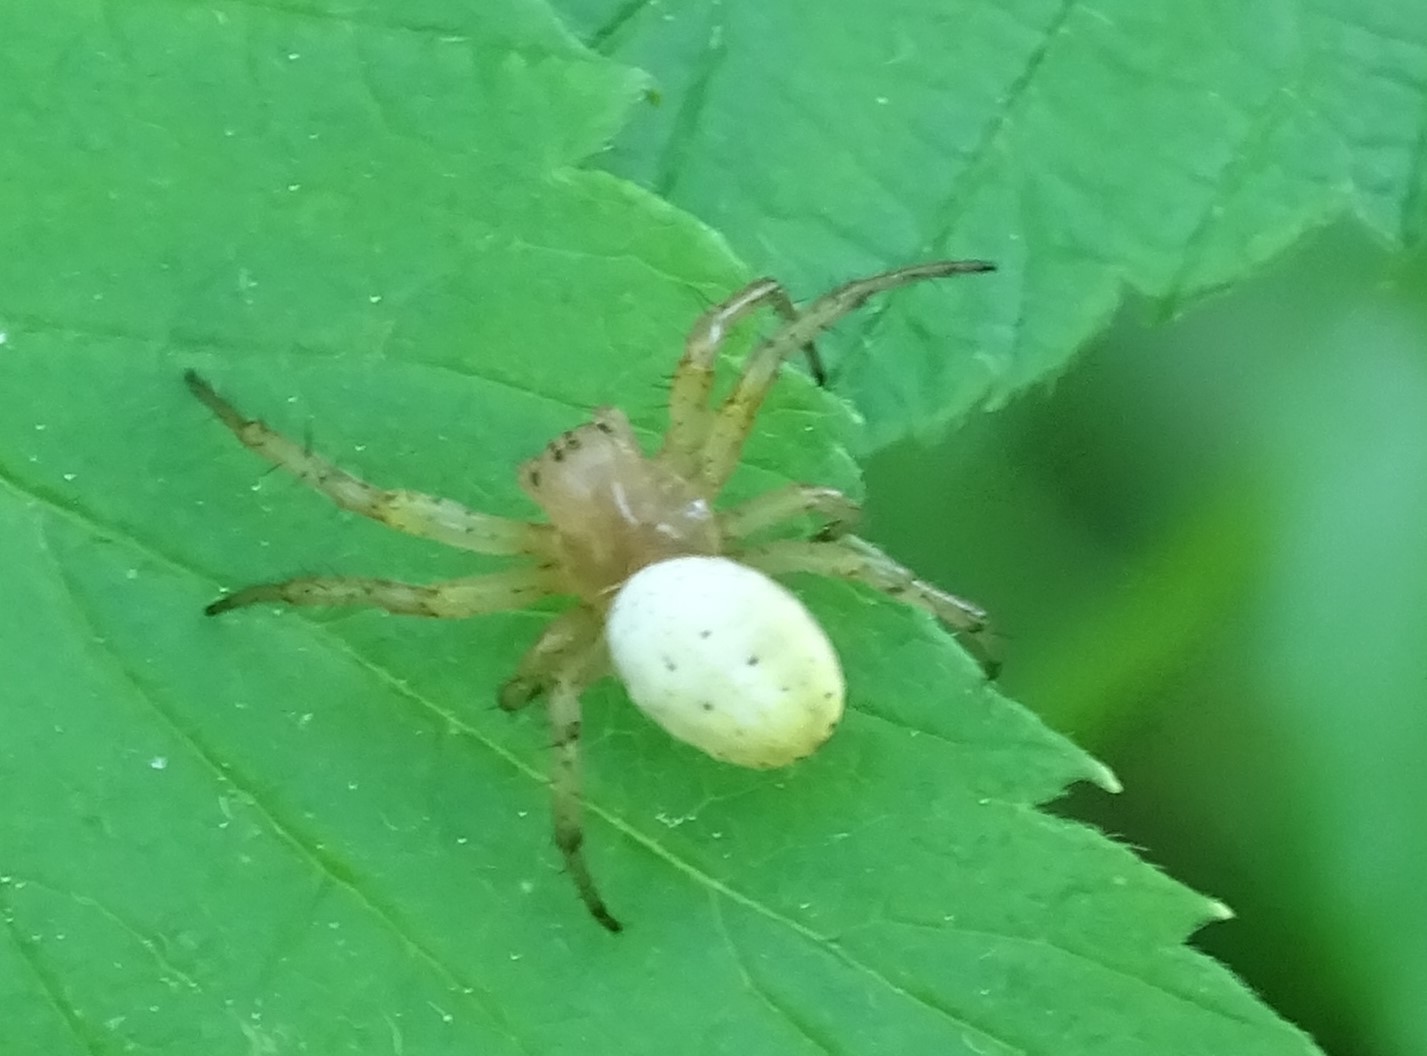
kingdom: Animalia
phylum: Arthropoda
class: Arachnida
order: Araneae
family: Araneidae
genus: Araniella
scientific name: Araniella displicata
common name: Sixspotted orb weaver
